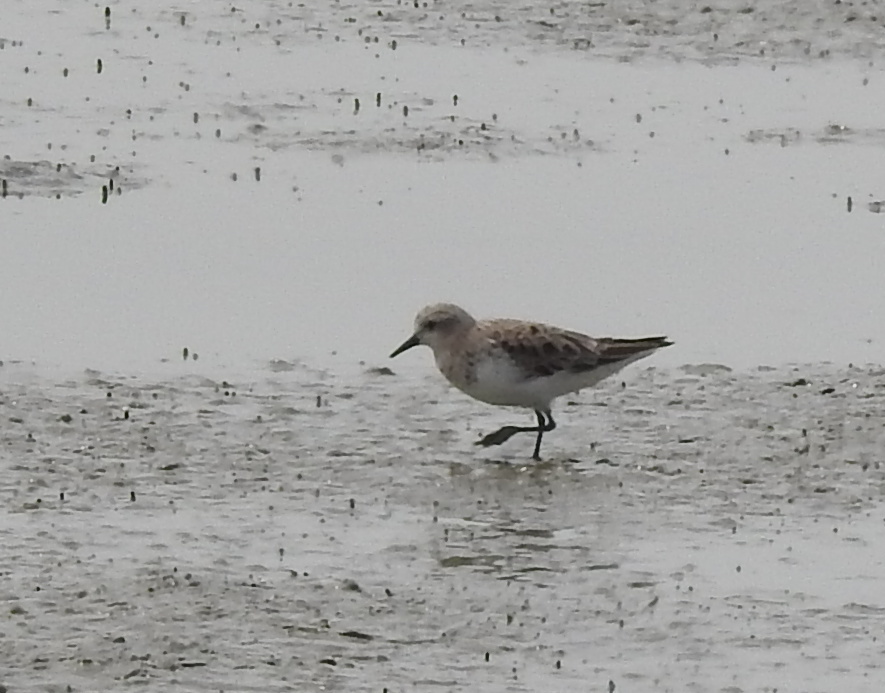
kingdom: Animalia
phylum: Chordata
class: Aves
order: Charadriiformes
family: Scolopacidae
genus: Calidris
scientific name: Calidris ruficollis
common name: Red-necked stint
